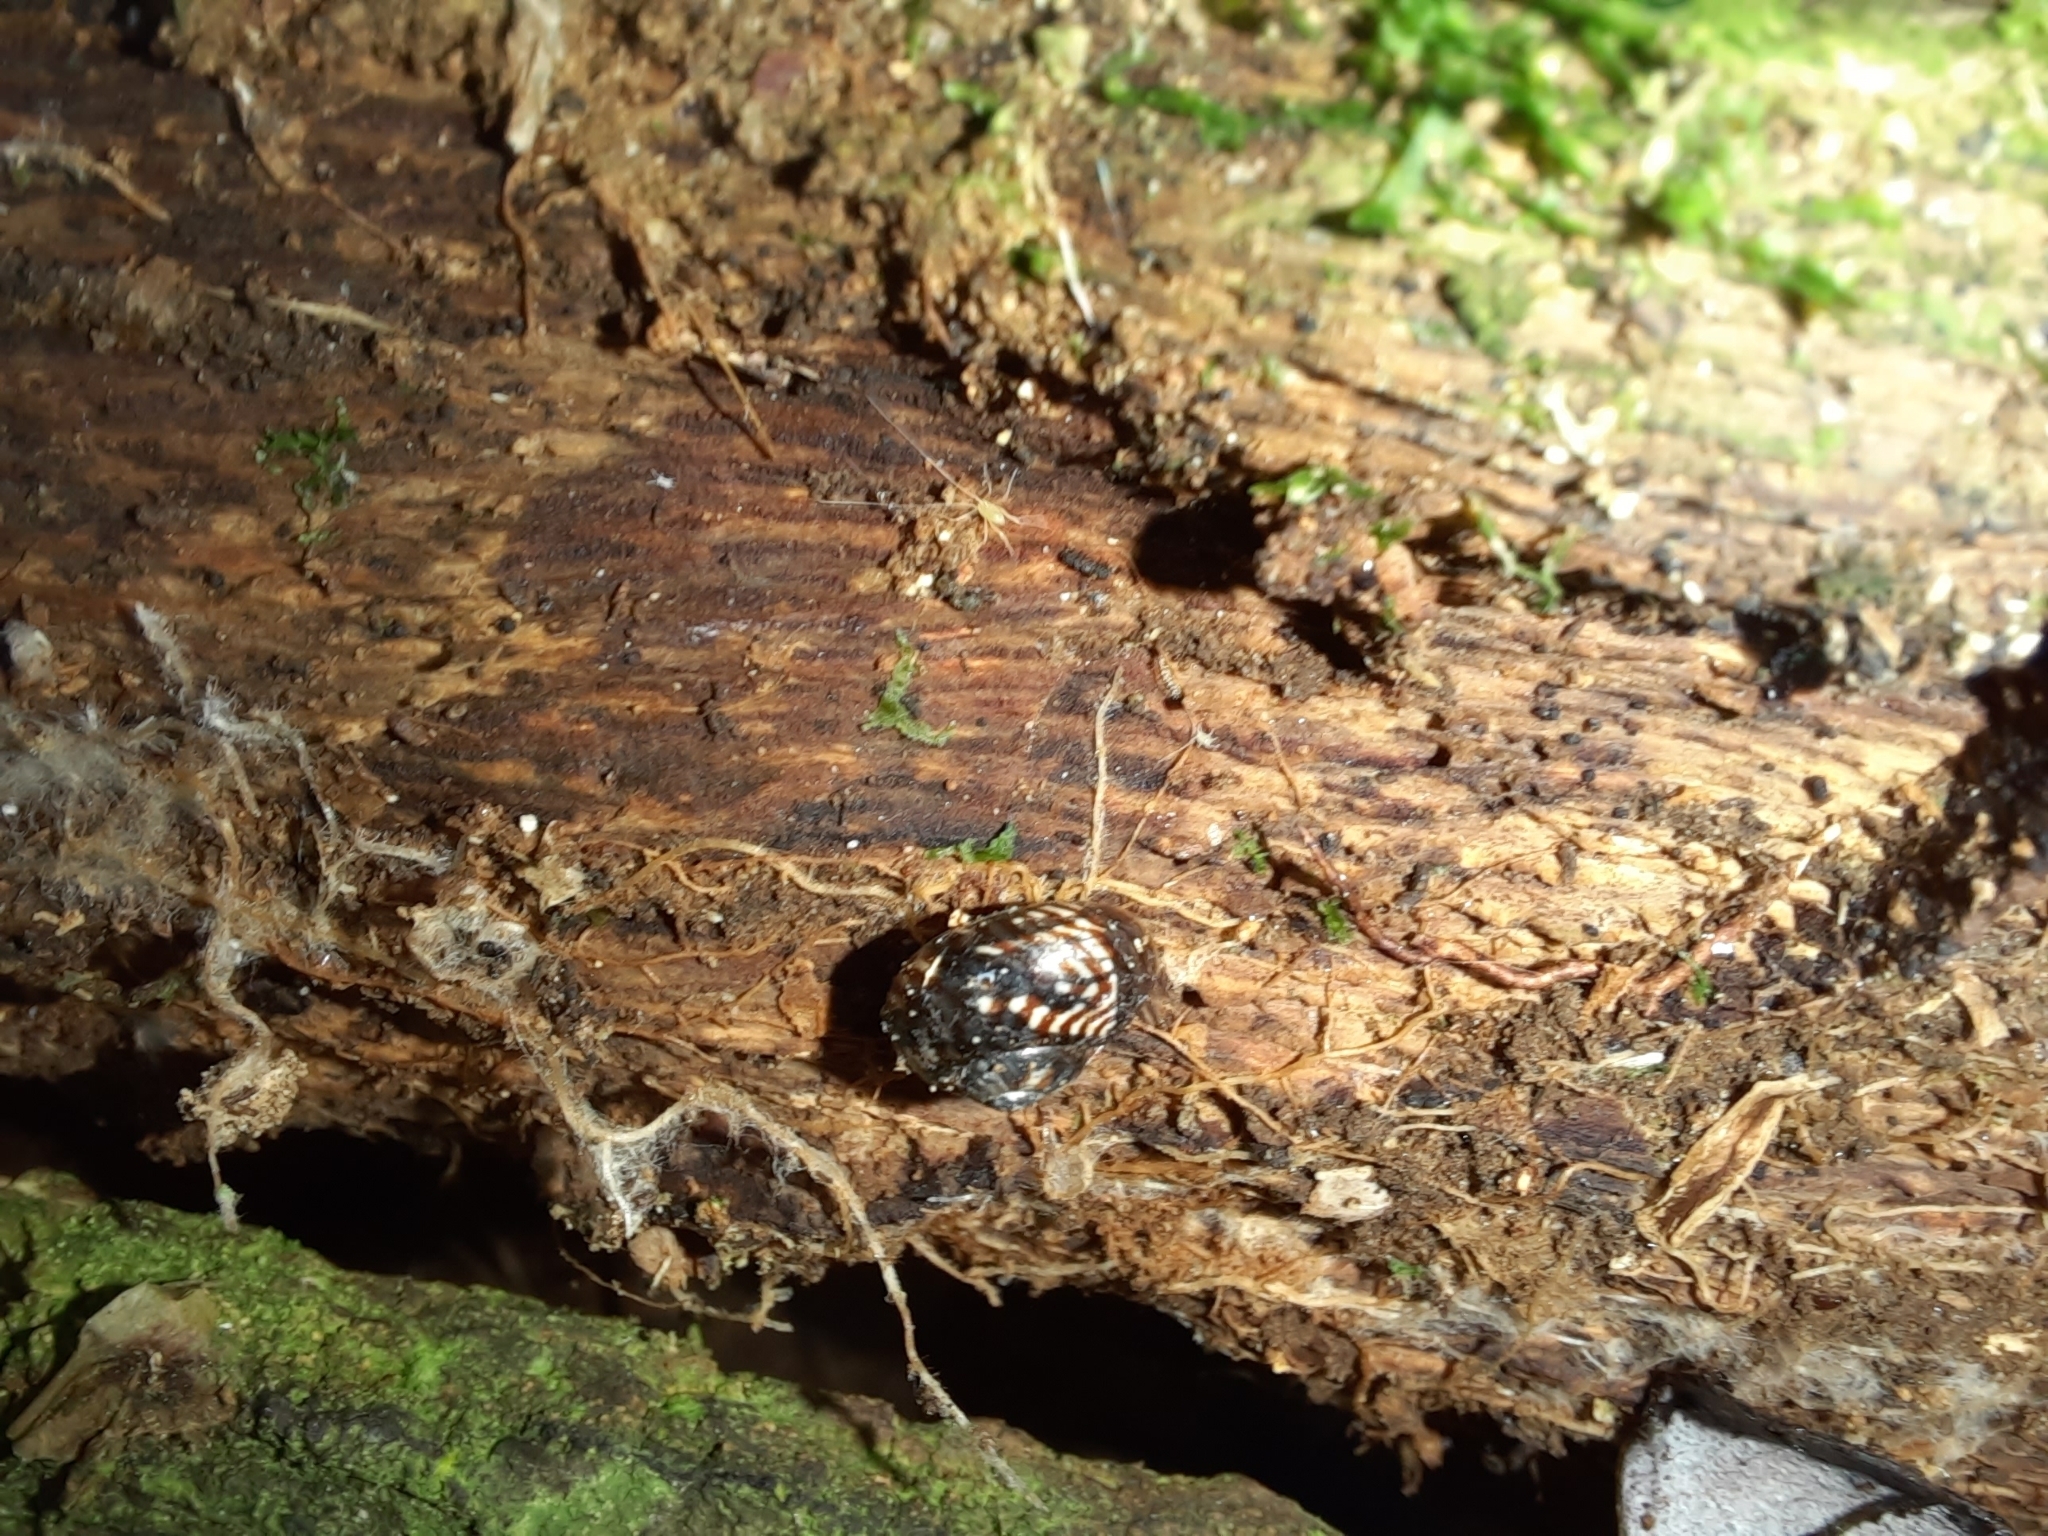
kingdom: Animalia
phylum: Mollusca
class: Gastropoda
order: Stylommatophora
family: Charopidae
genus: Flammulina
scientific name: Flammulina zebra
